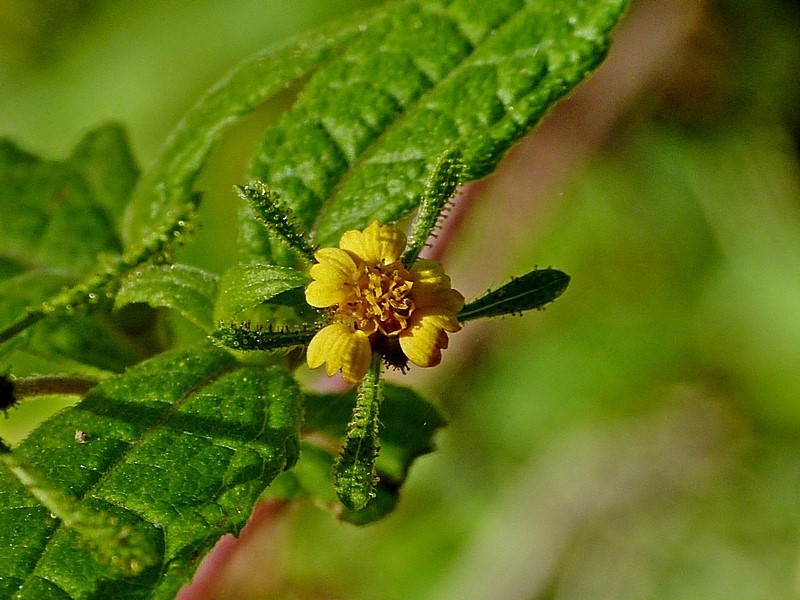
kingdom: Plantae
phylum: Tracheophyta
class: Magnoliopsida
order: Asterales
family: Asteraceae
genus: Sigesbeckia
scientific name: Sigesbeckia orientalis
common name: Eastern st paul's-wort
